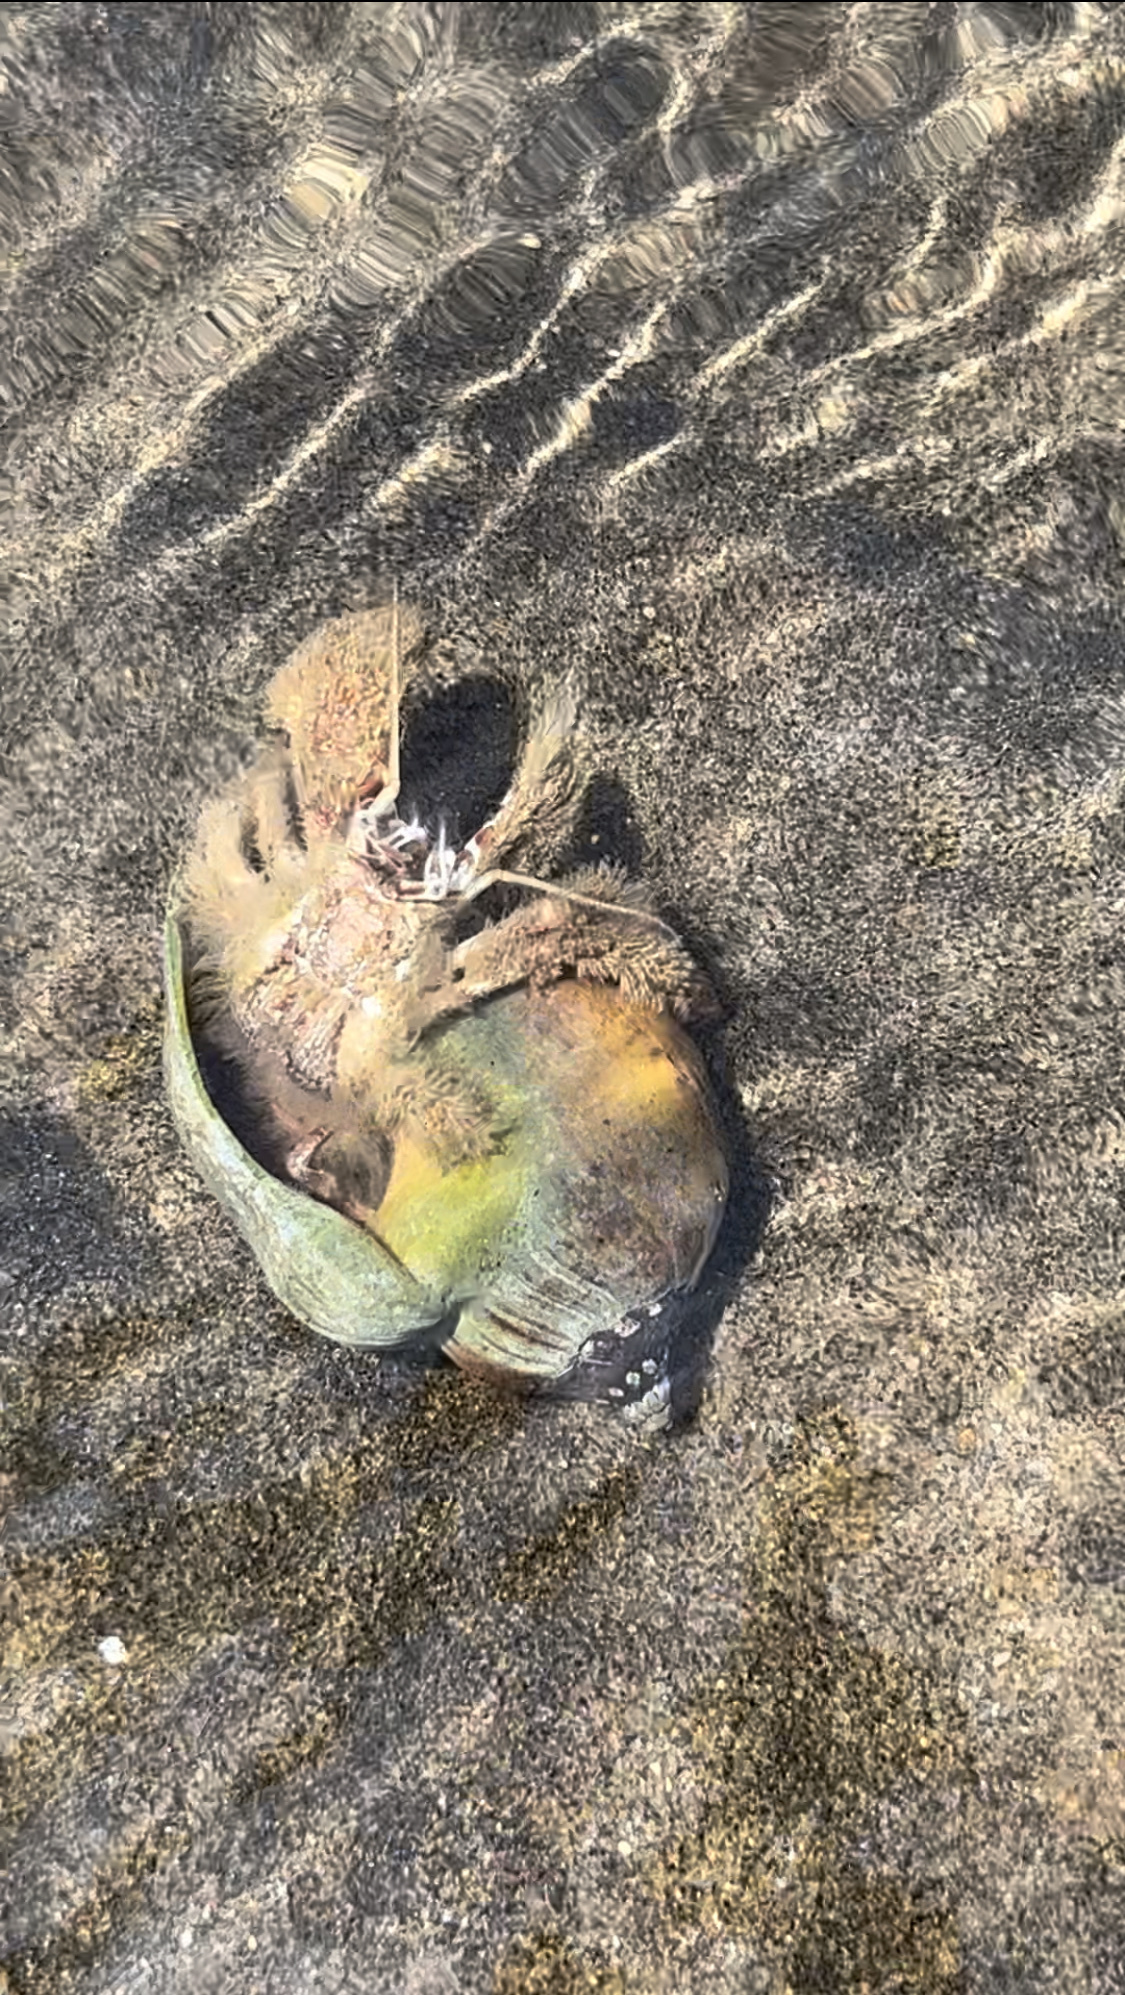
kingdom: Animalia
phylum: Arthropoda
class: Malacostraca
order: Decapoda
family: Diogenidae
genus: Areopaguristes
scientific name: Areopaguristes setosus
